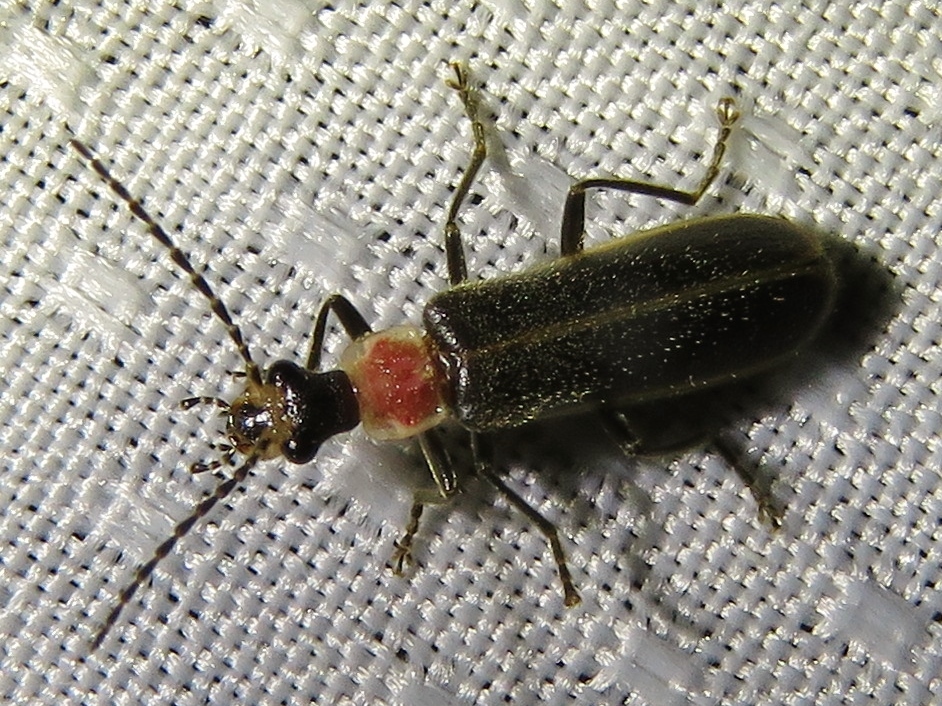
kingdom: Animalia
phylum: Arthropoda
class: Insecta
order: Coleoptera
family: Cantharidae
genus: Podabrus
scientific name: Podabrus quadratus
